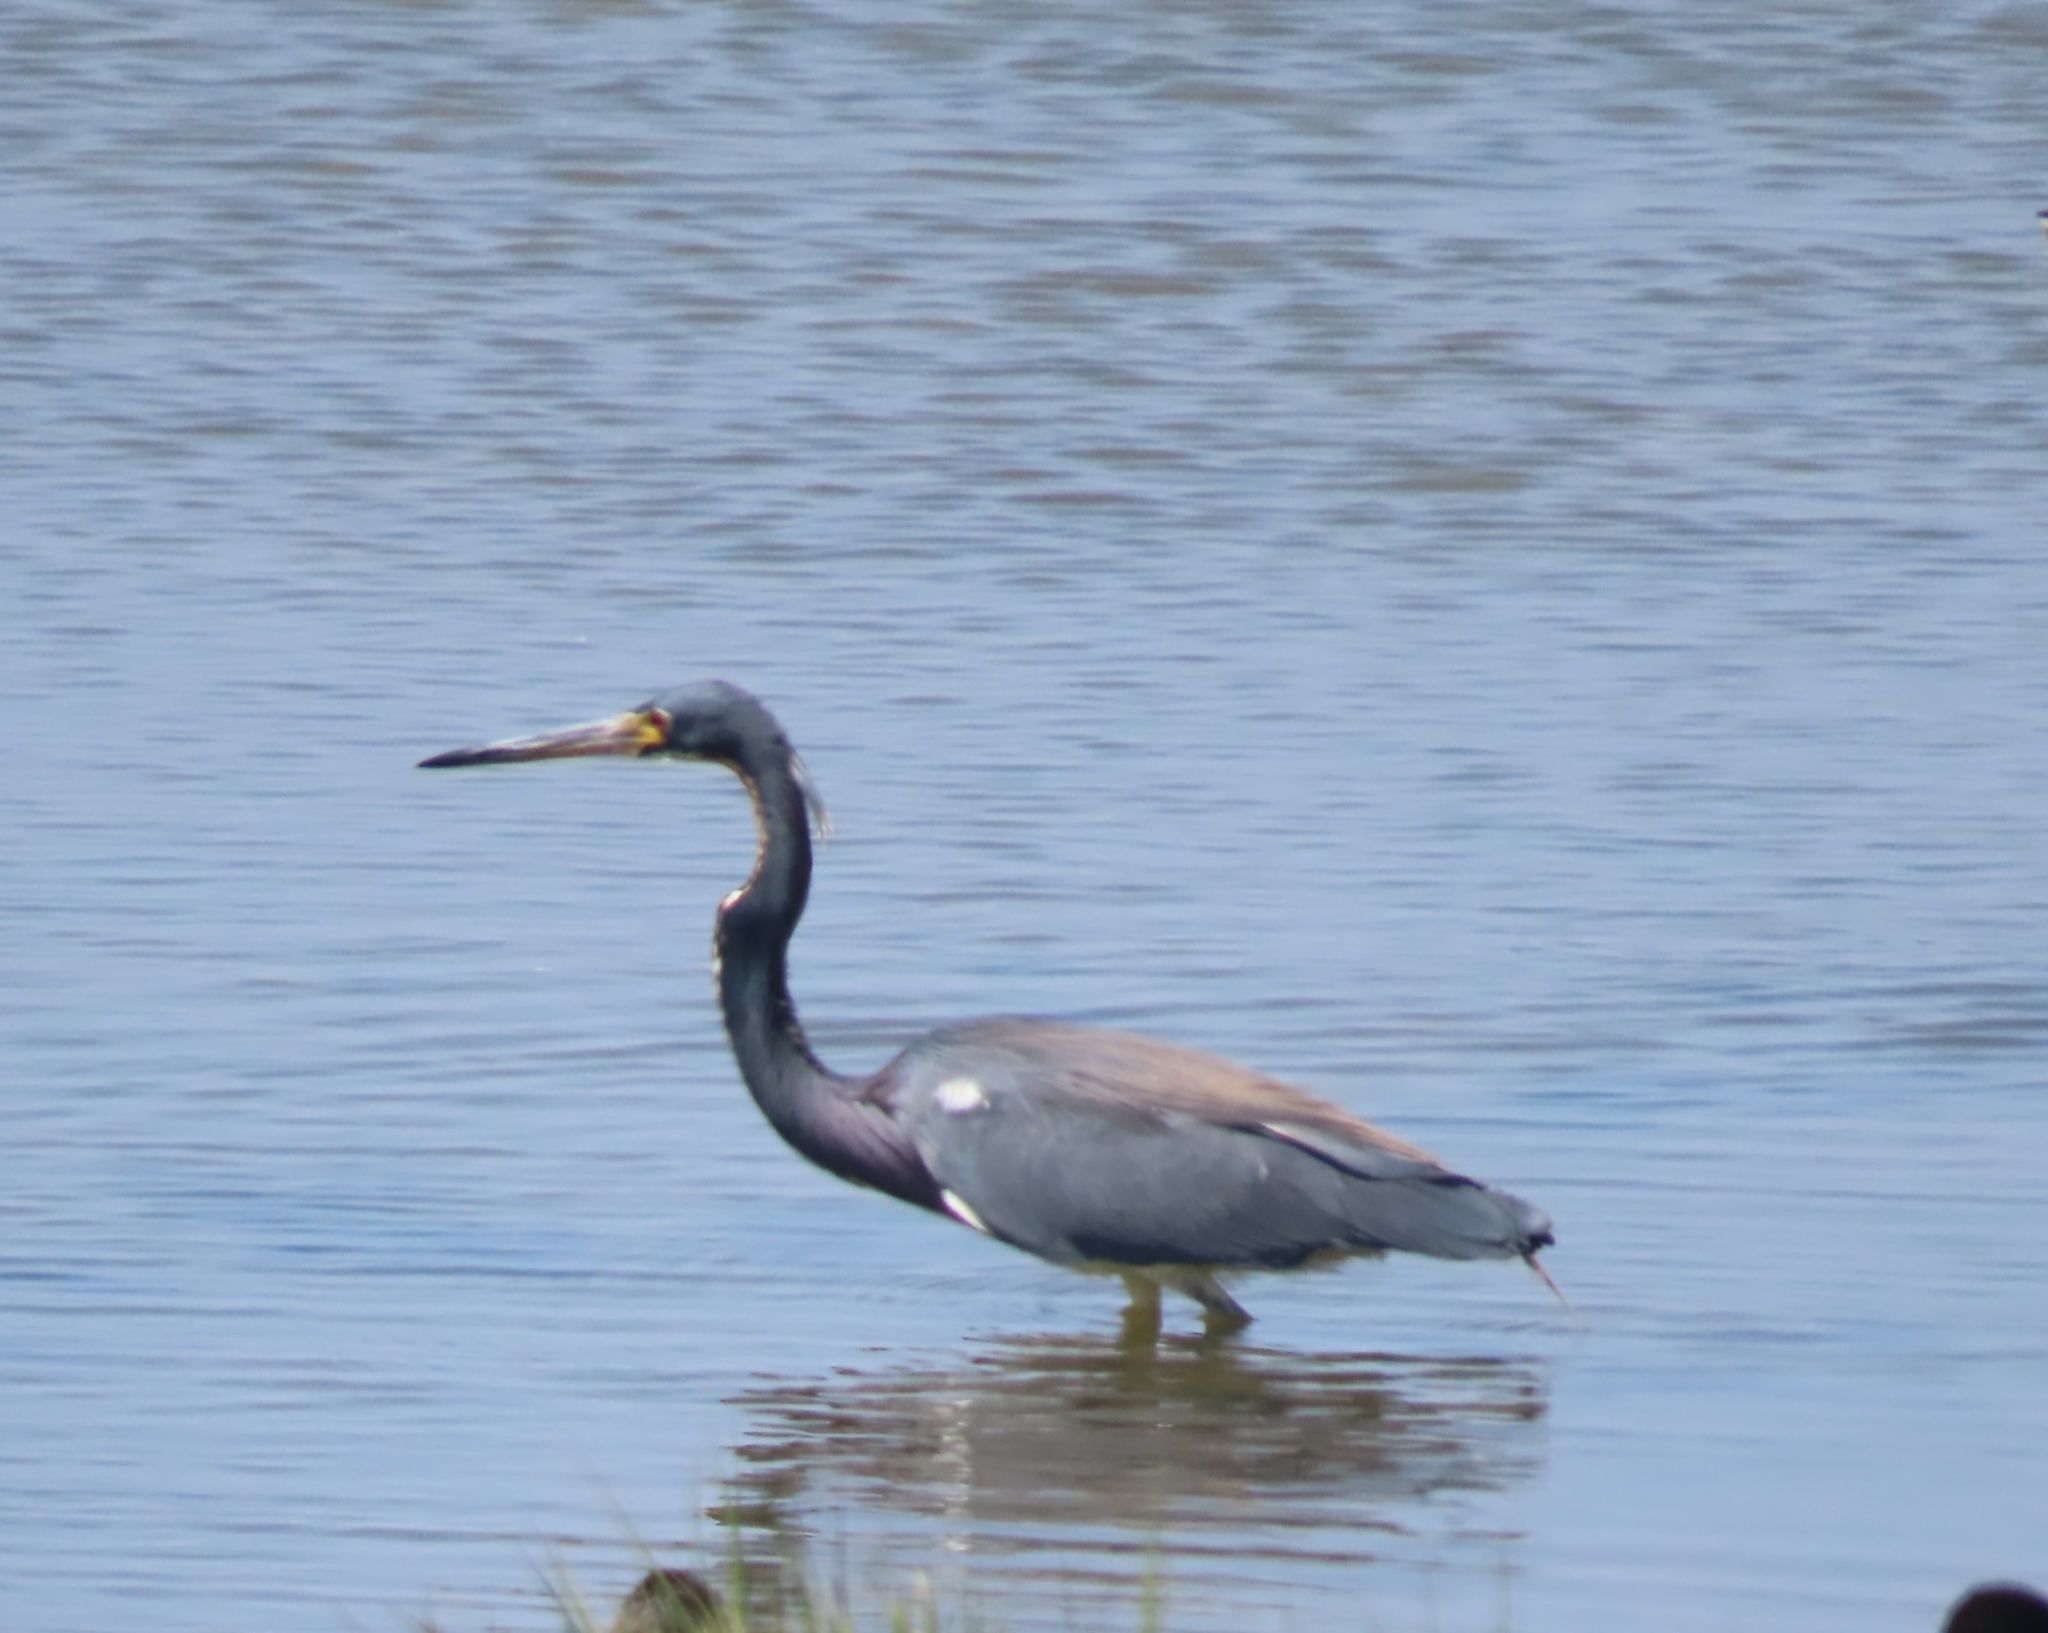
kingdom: Animalia
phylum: Chordata
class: Aves
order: Pelecaniformes
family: Ardeidae
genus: Egretta
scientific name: Egretta tricolor
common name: Tricolored heron
